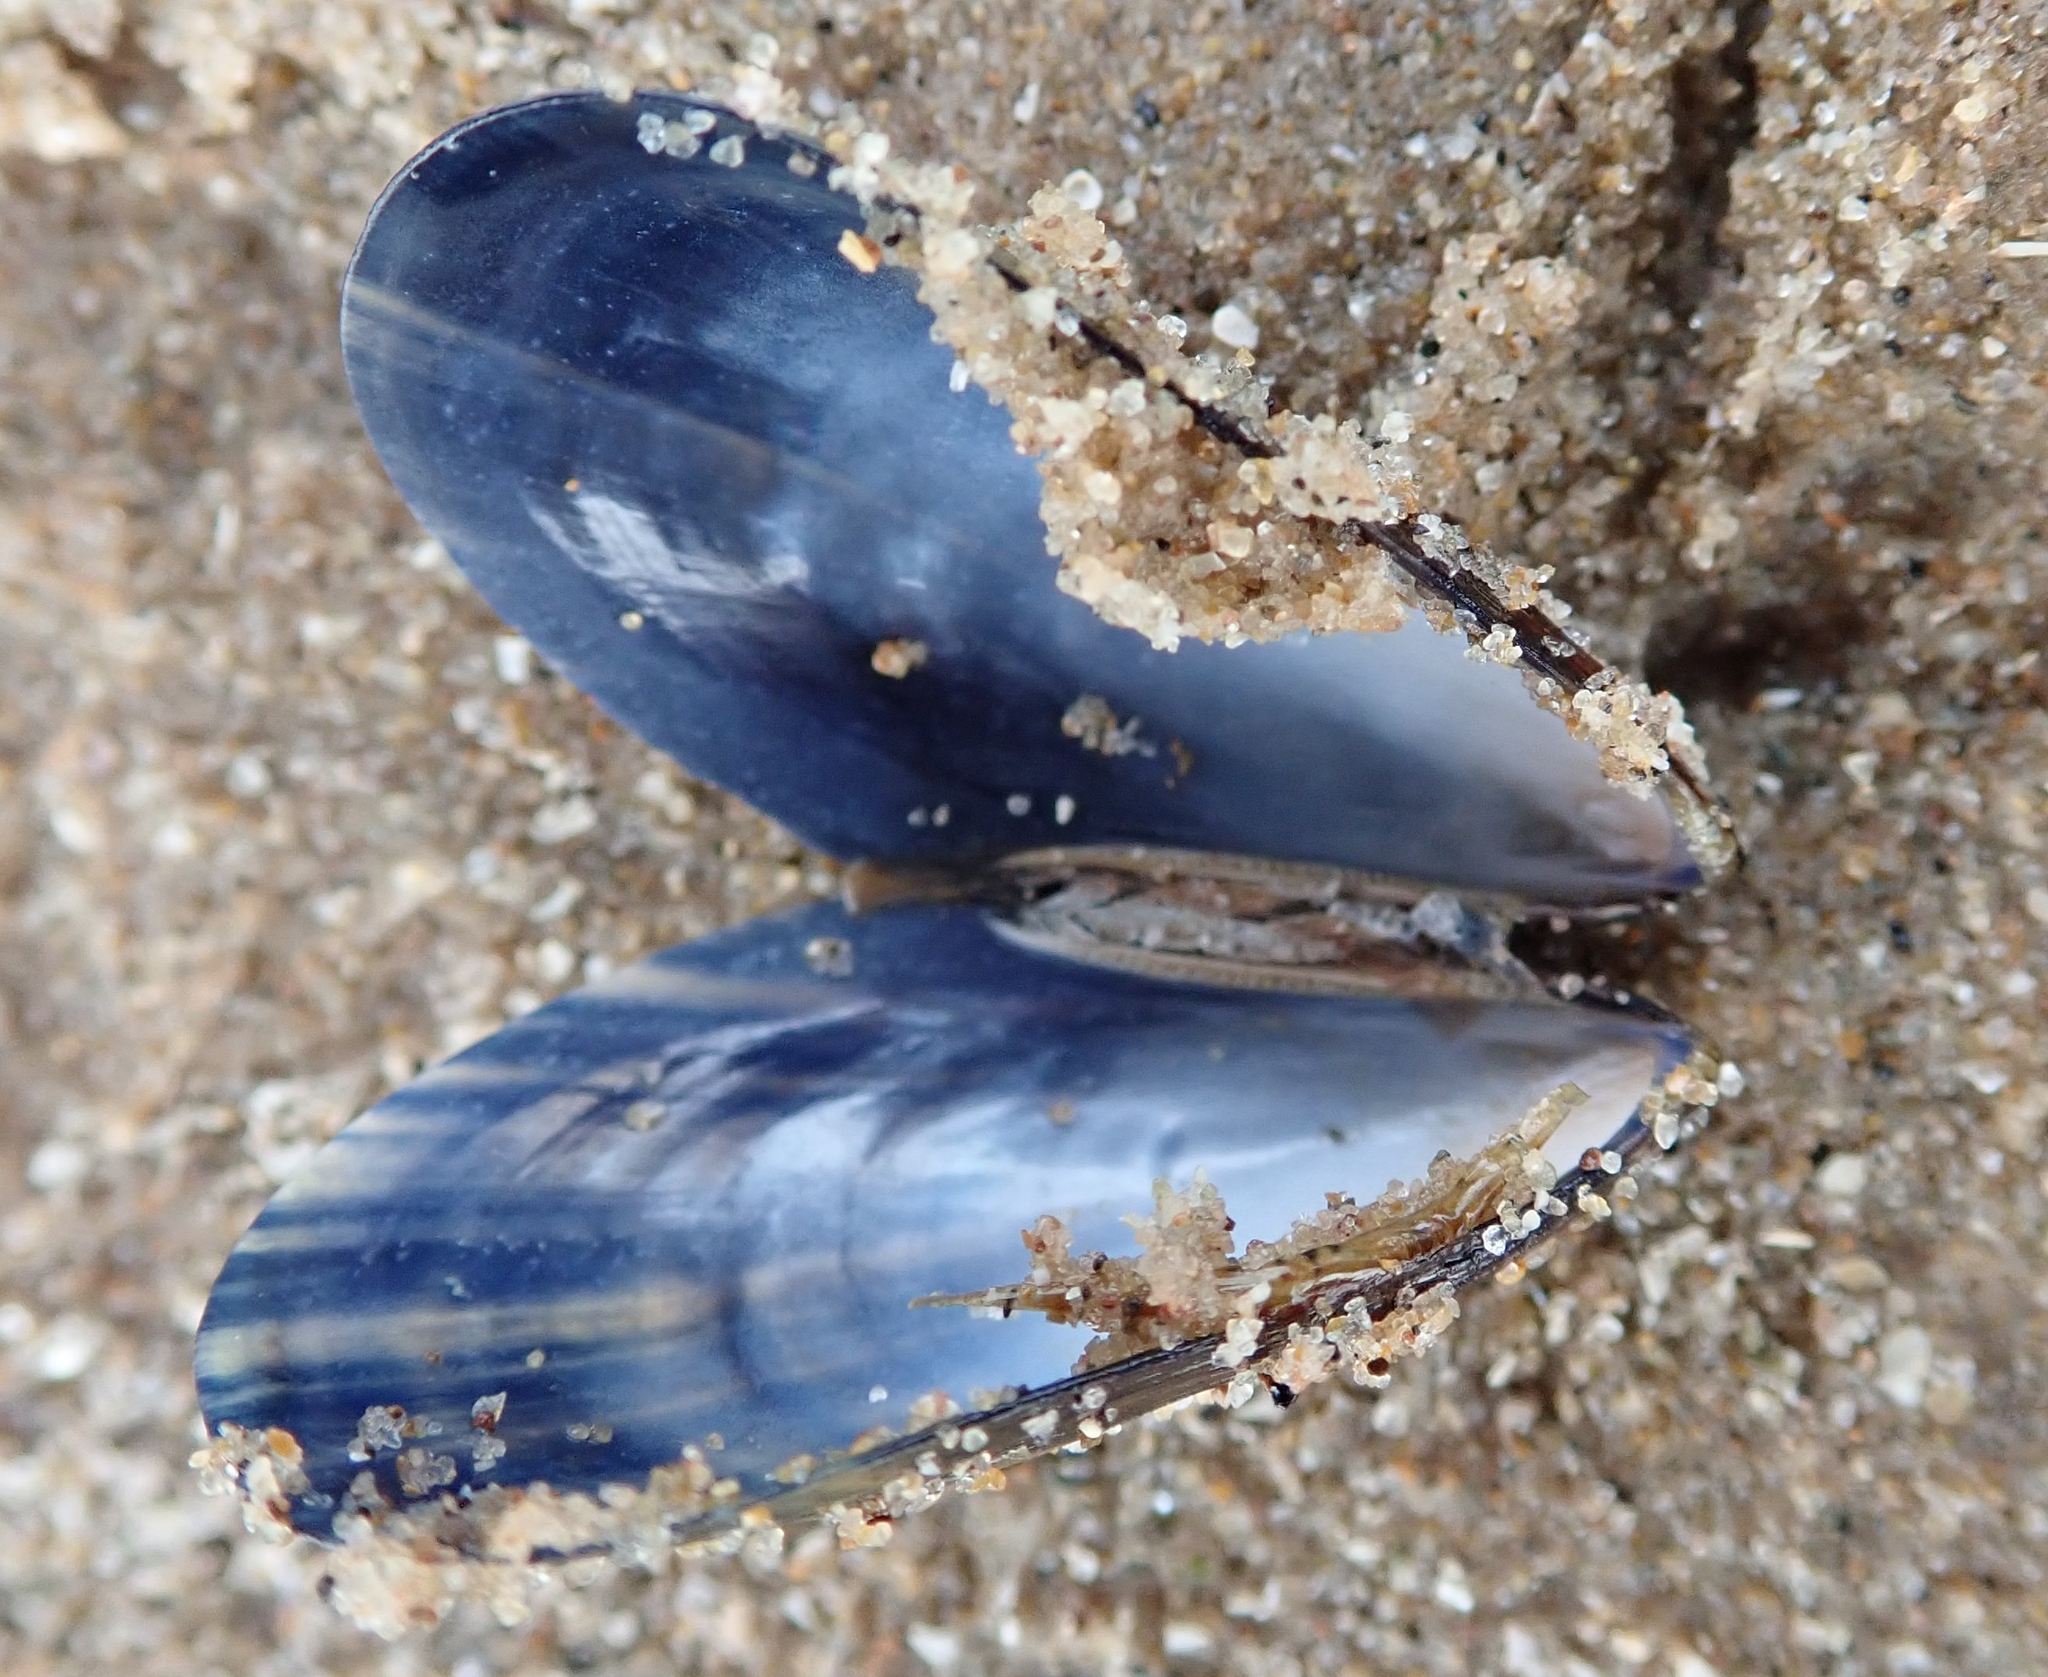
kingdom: Animalia
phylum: Mollusca
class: Bivalvia
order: Mytilida
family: Mytilidae
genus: Mytilus
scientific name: Mytilus edulis
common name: Blue mussel
